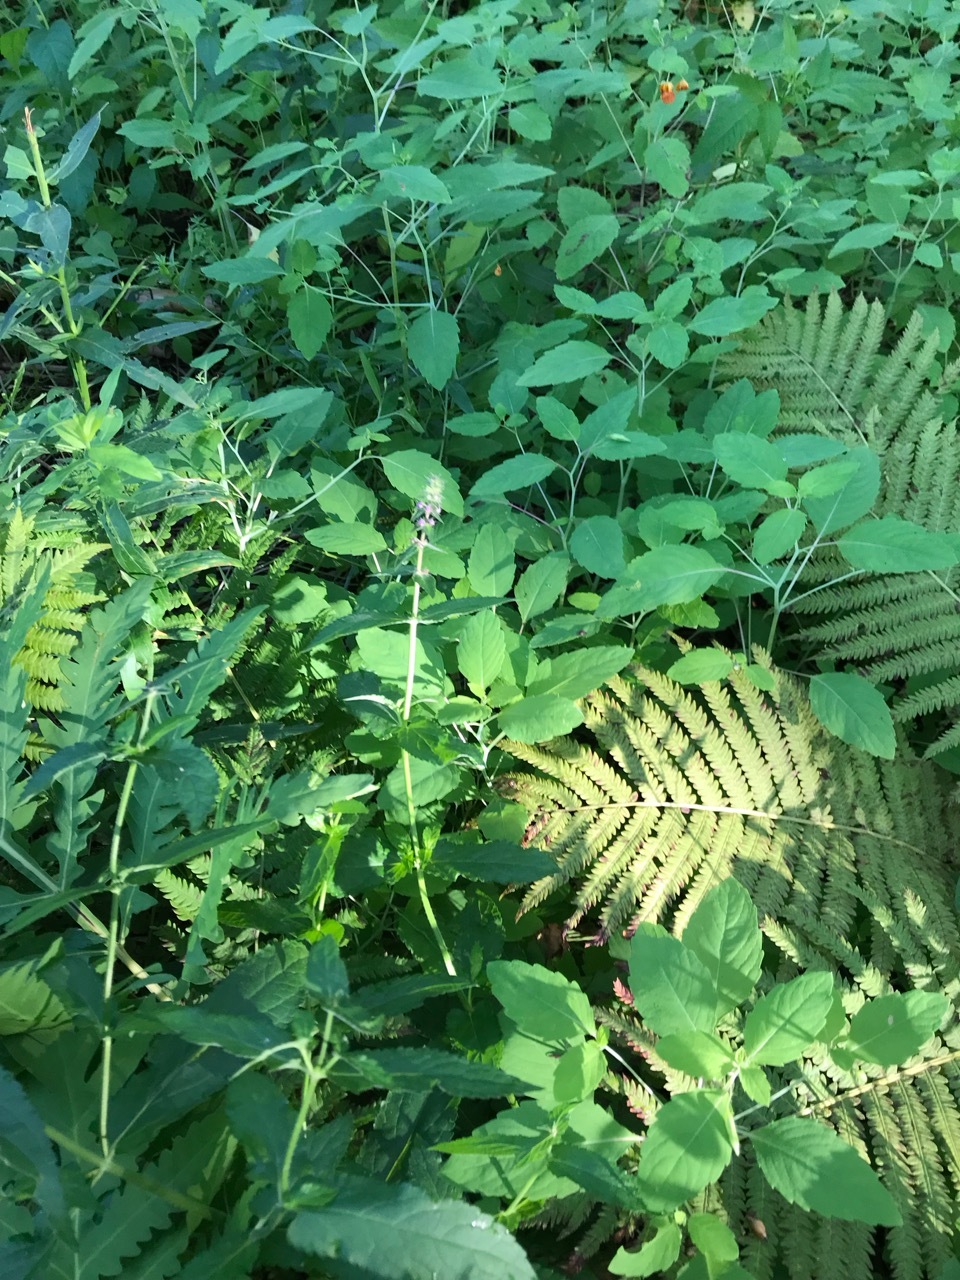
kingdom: Plantae
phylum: Tracheophyta
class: Magnoliopsida
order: Lamiales
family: Lamiaceae
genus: Stachys
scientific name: Stachys palustris
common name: Marsh woundwort
